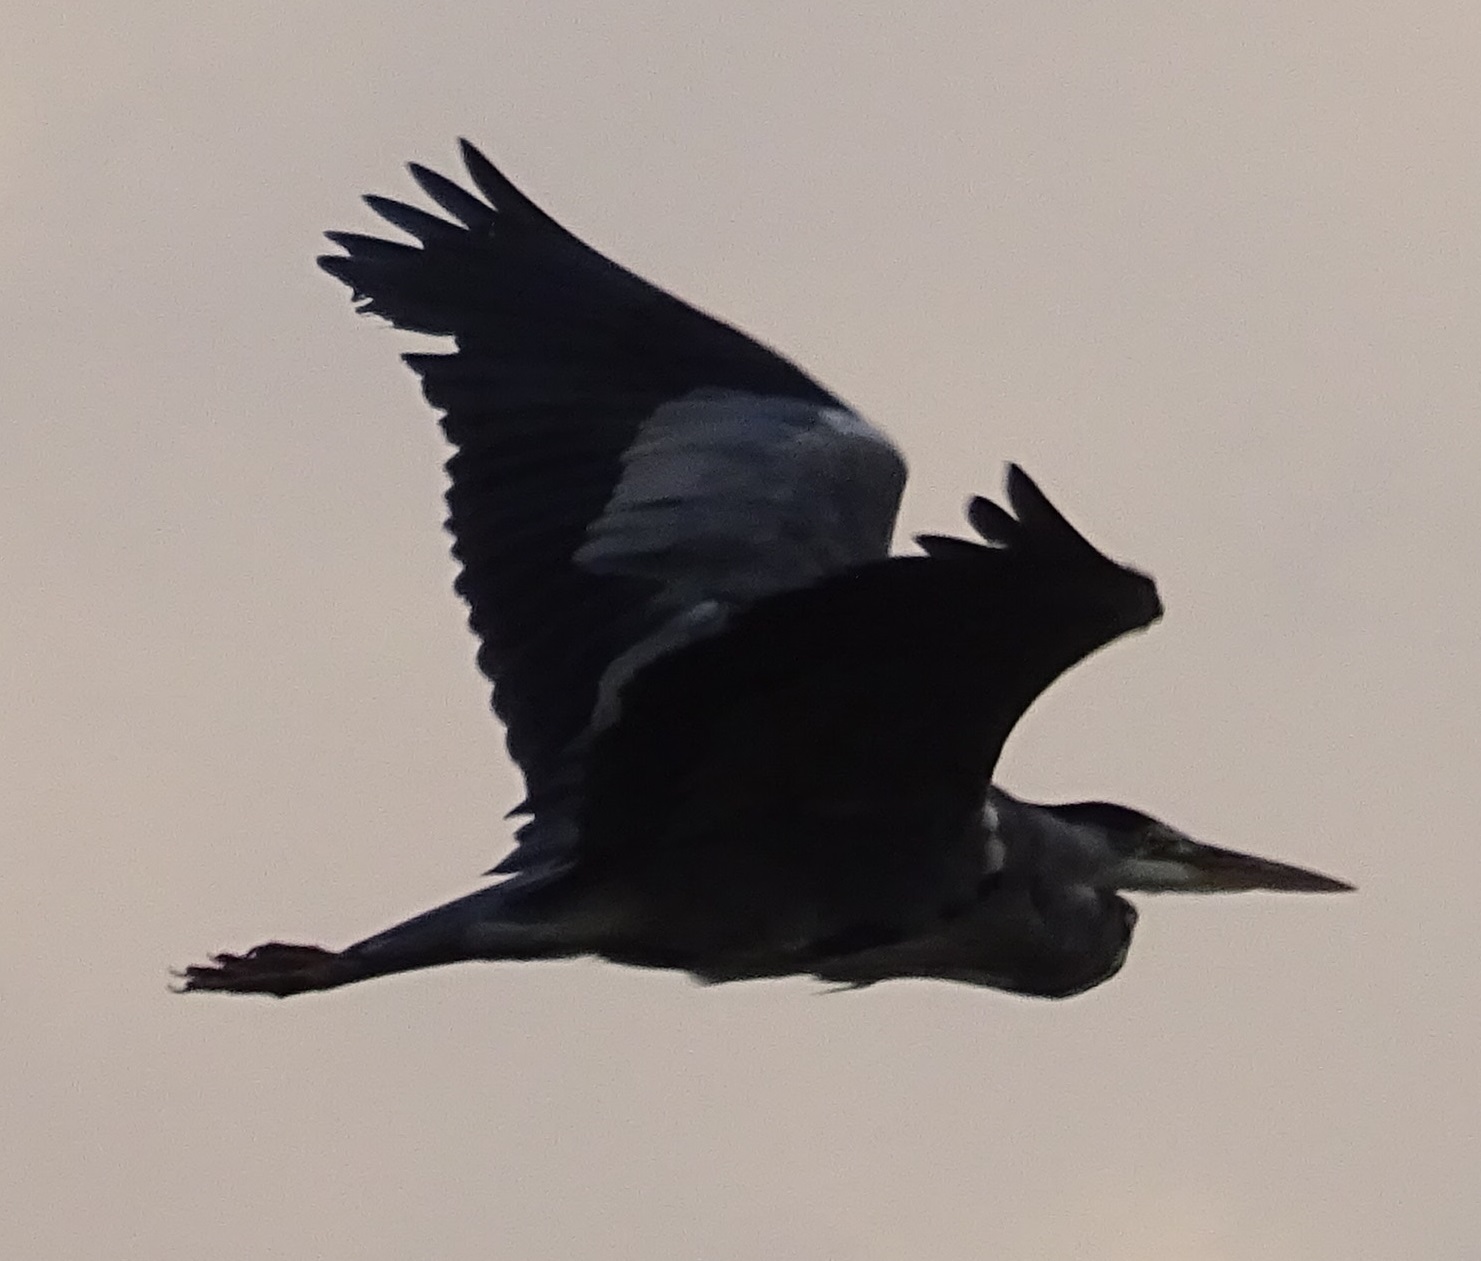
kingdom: Animalia
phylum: Chordata
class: Aves
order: Pelecaniformes
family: Ardeidae
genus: Ardea
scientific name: Ardea cinerea
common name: Grey heron
